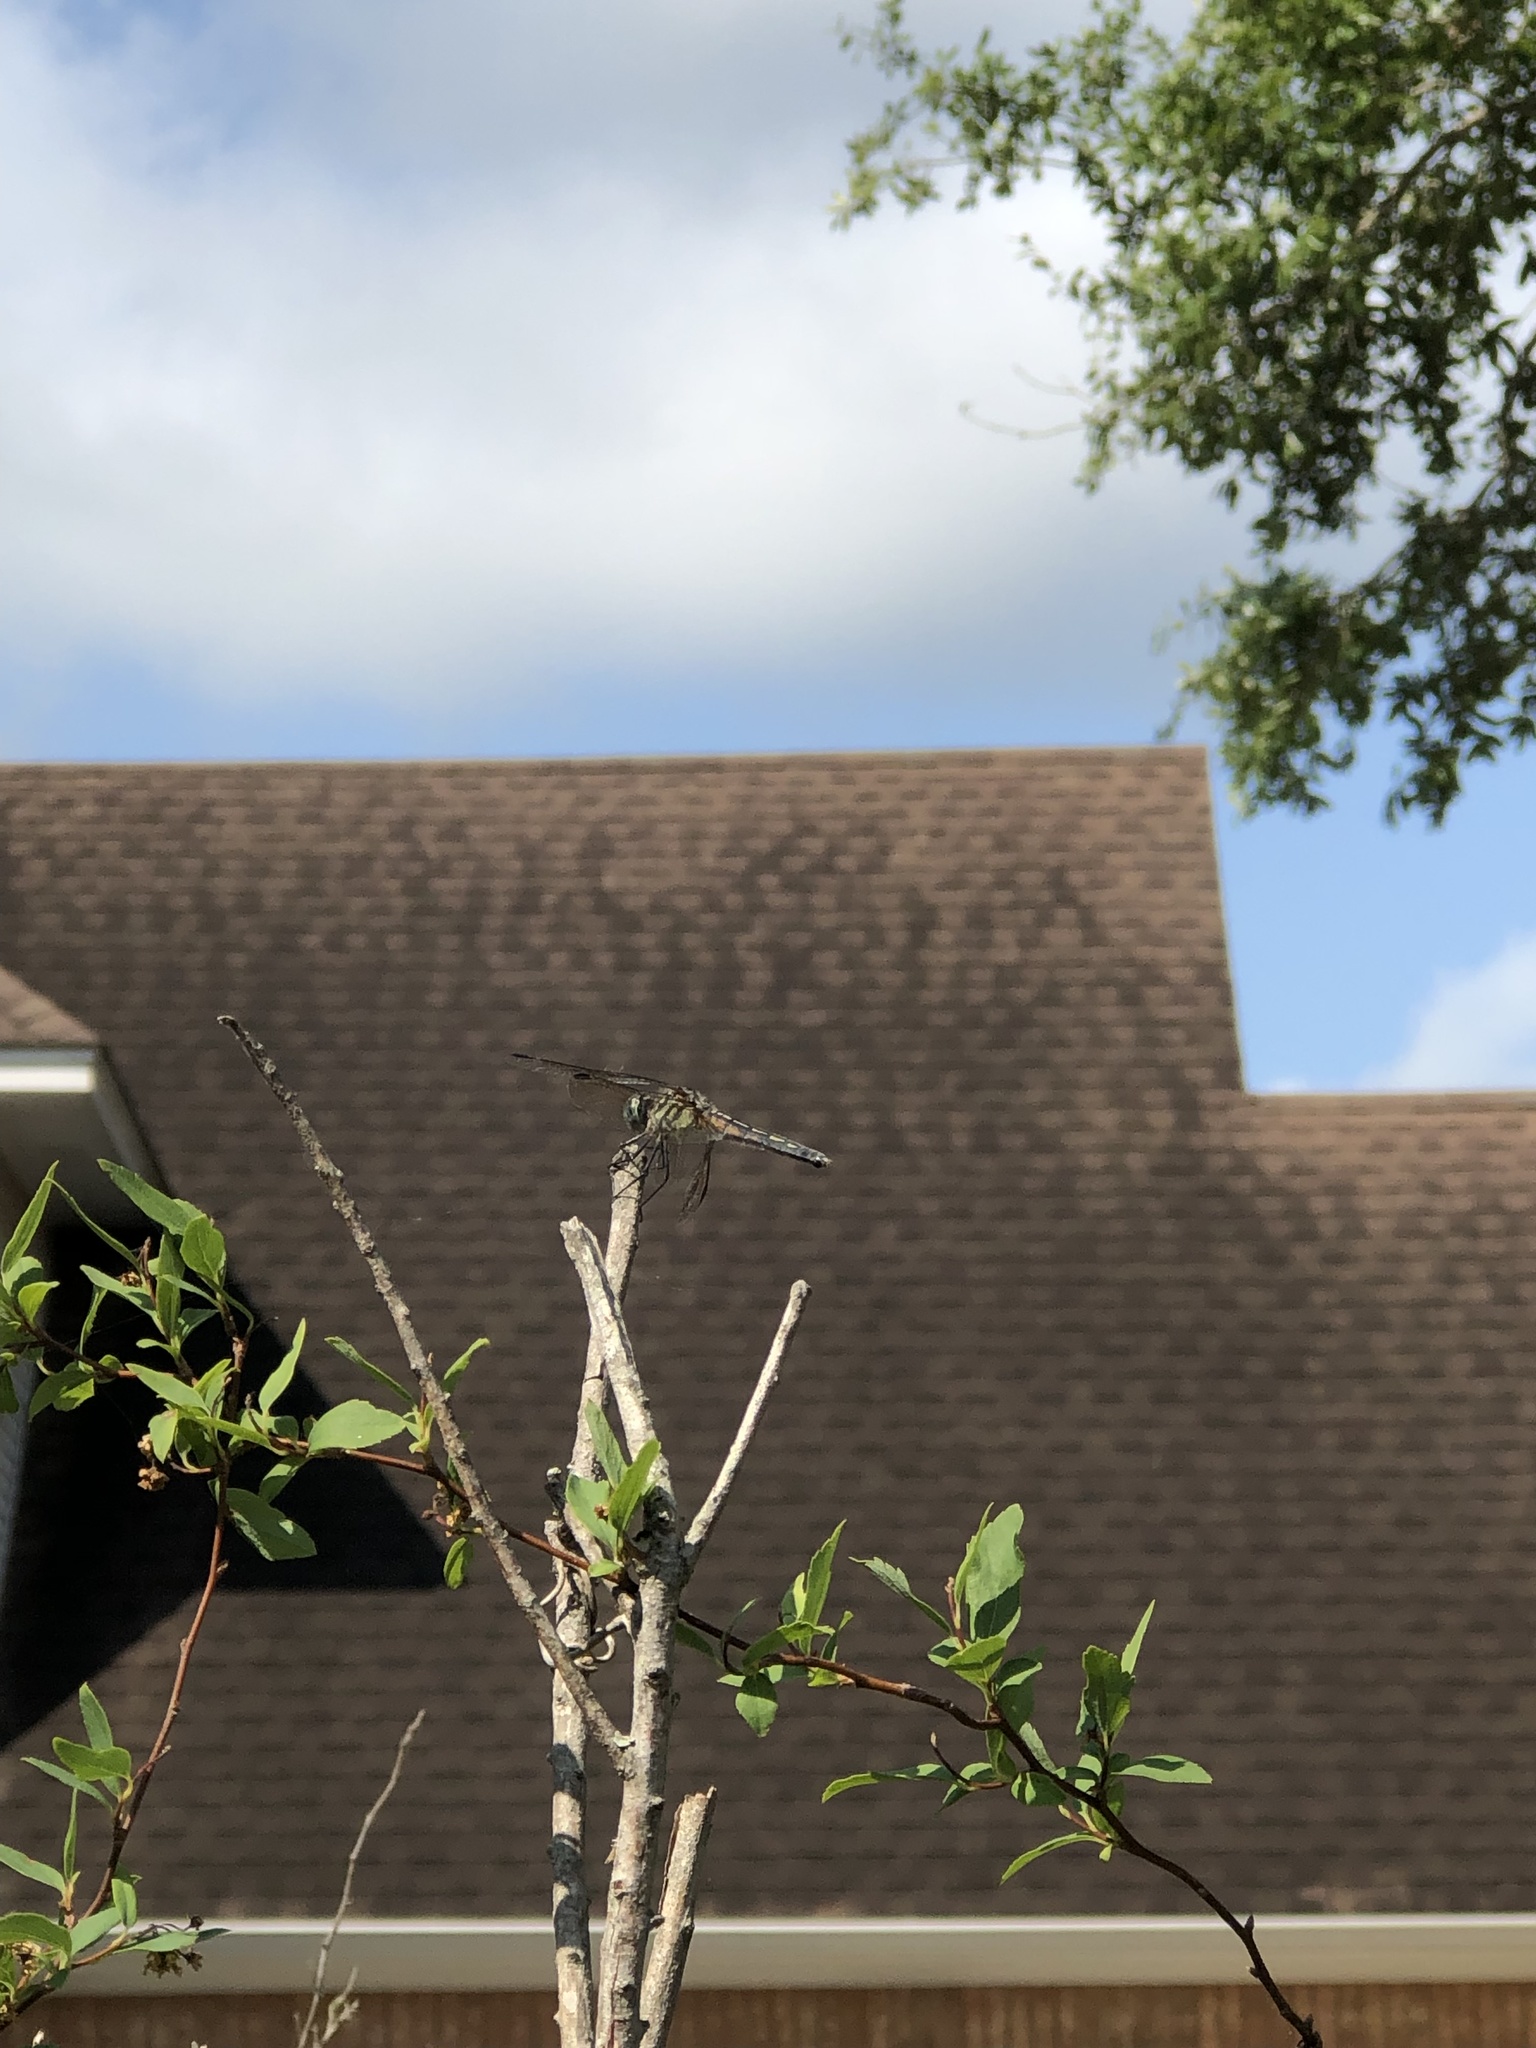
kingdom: Animalia
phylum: Arthropoda
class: Insecta
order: Odonata
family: Libellulidae
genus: Pachydiplax
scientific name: Pachydiplax longipennis
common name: Blue dasher
